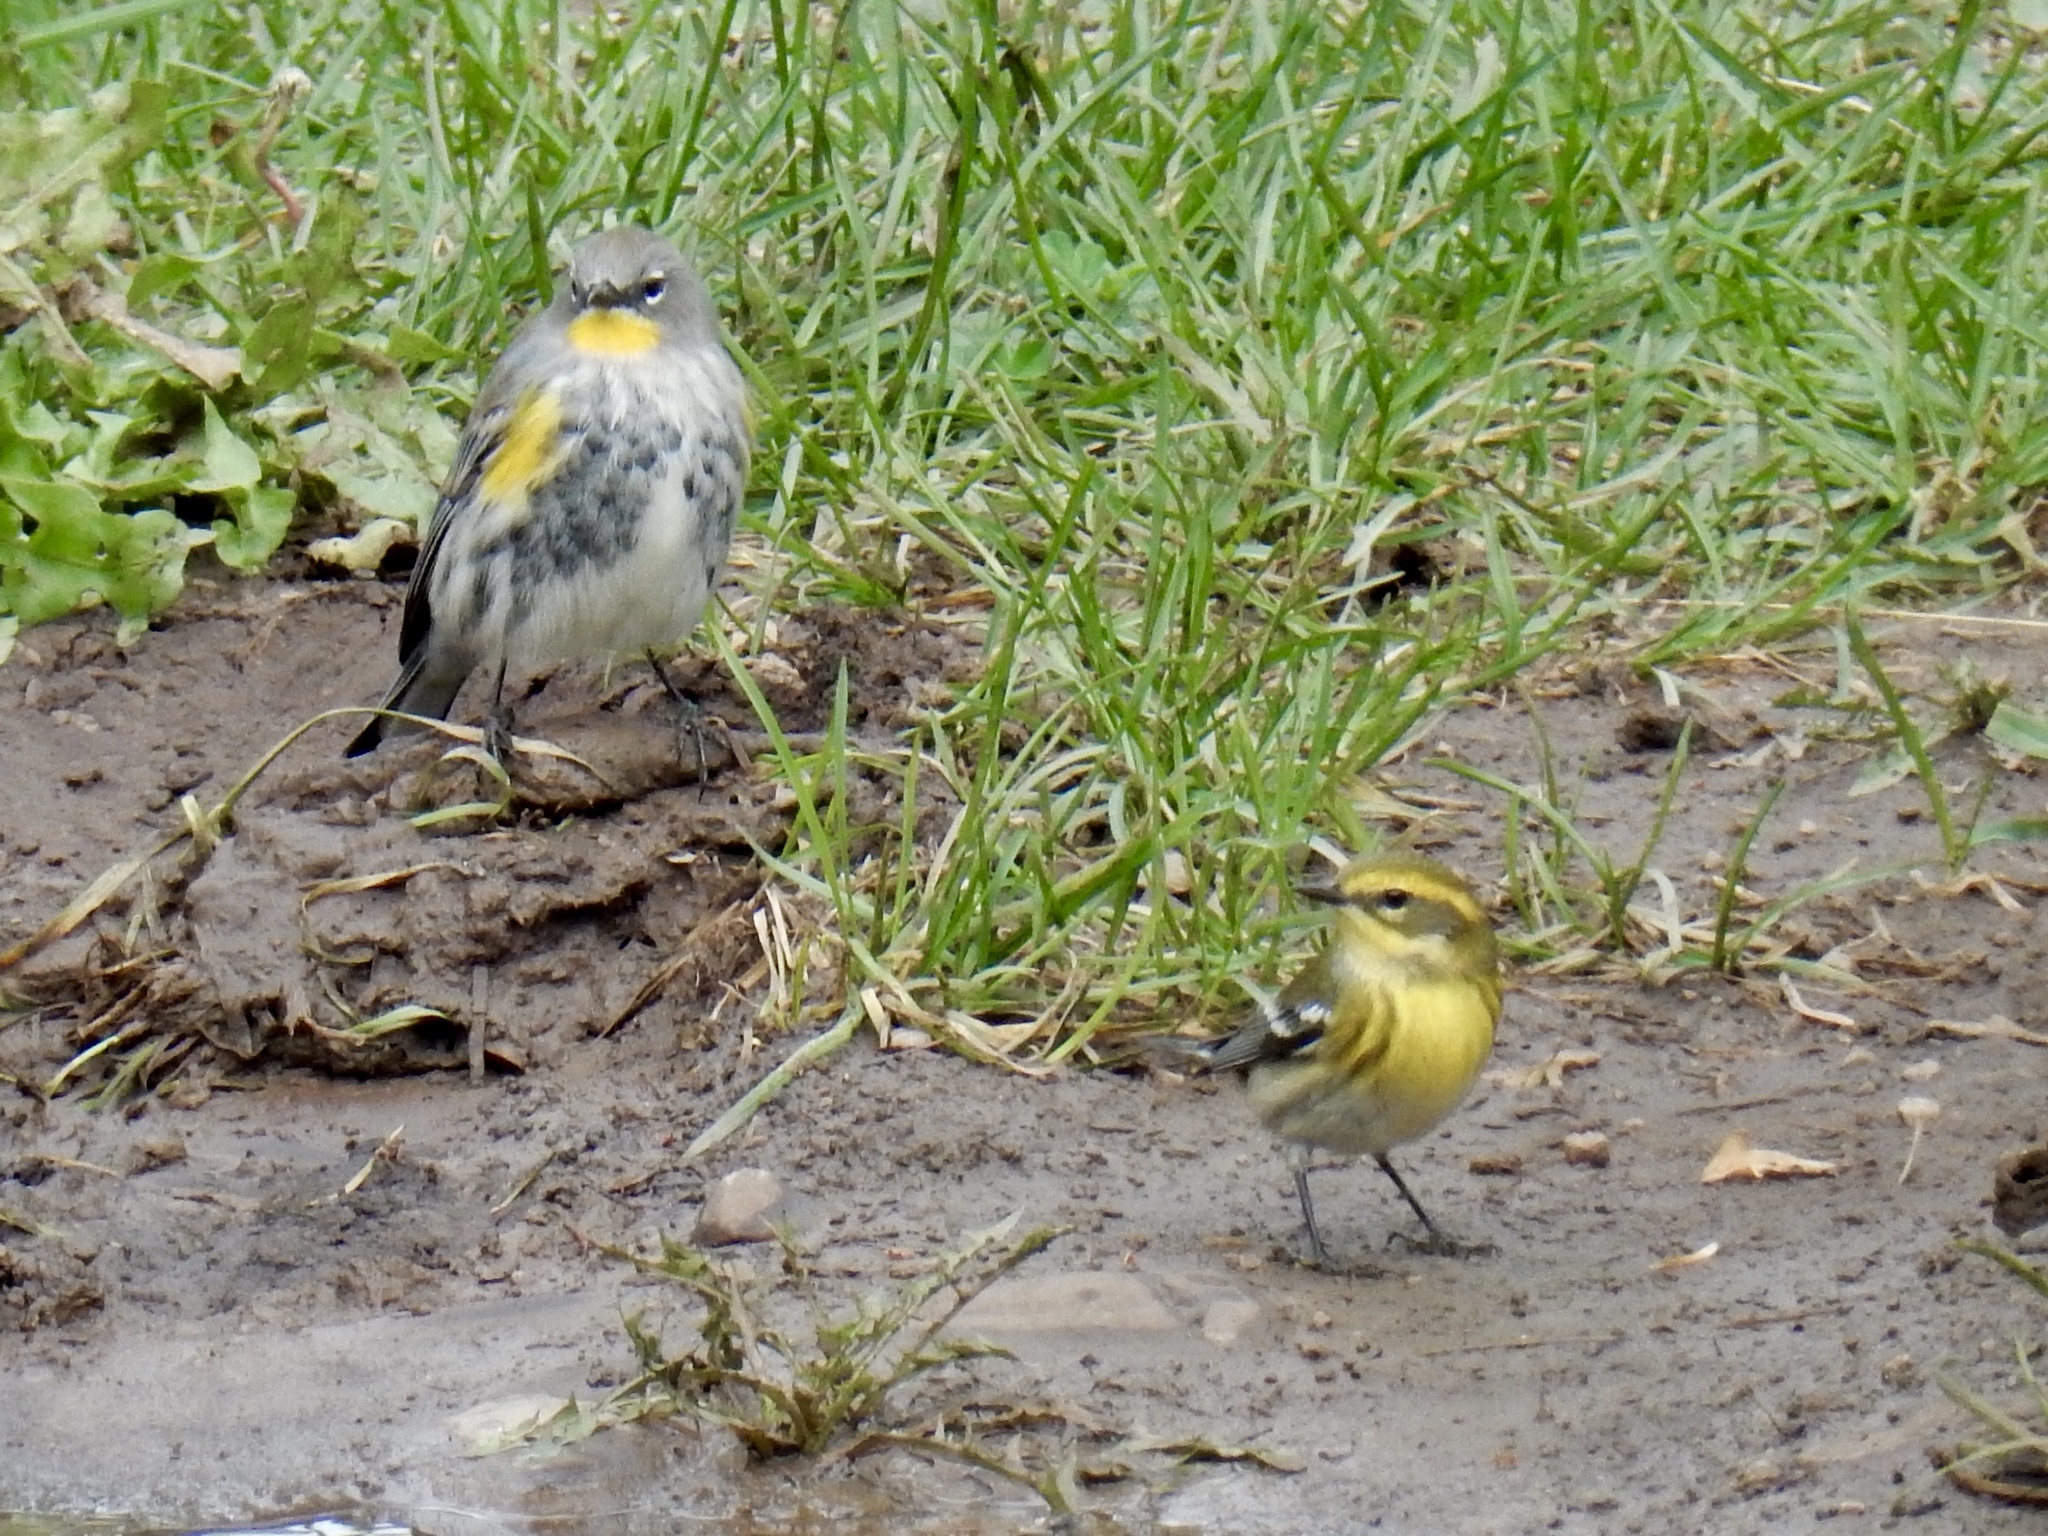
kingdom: Animalia
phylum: Chordata
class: Aves
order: Passeriformes
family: Parulidae
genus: Setophaga
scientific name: Setophaga townsendi
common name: Townsend's warbler
